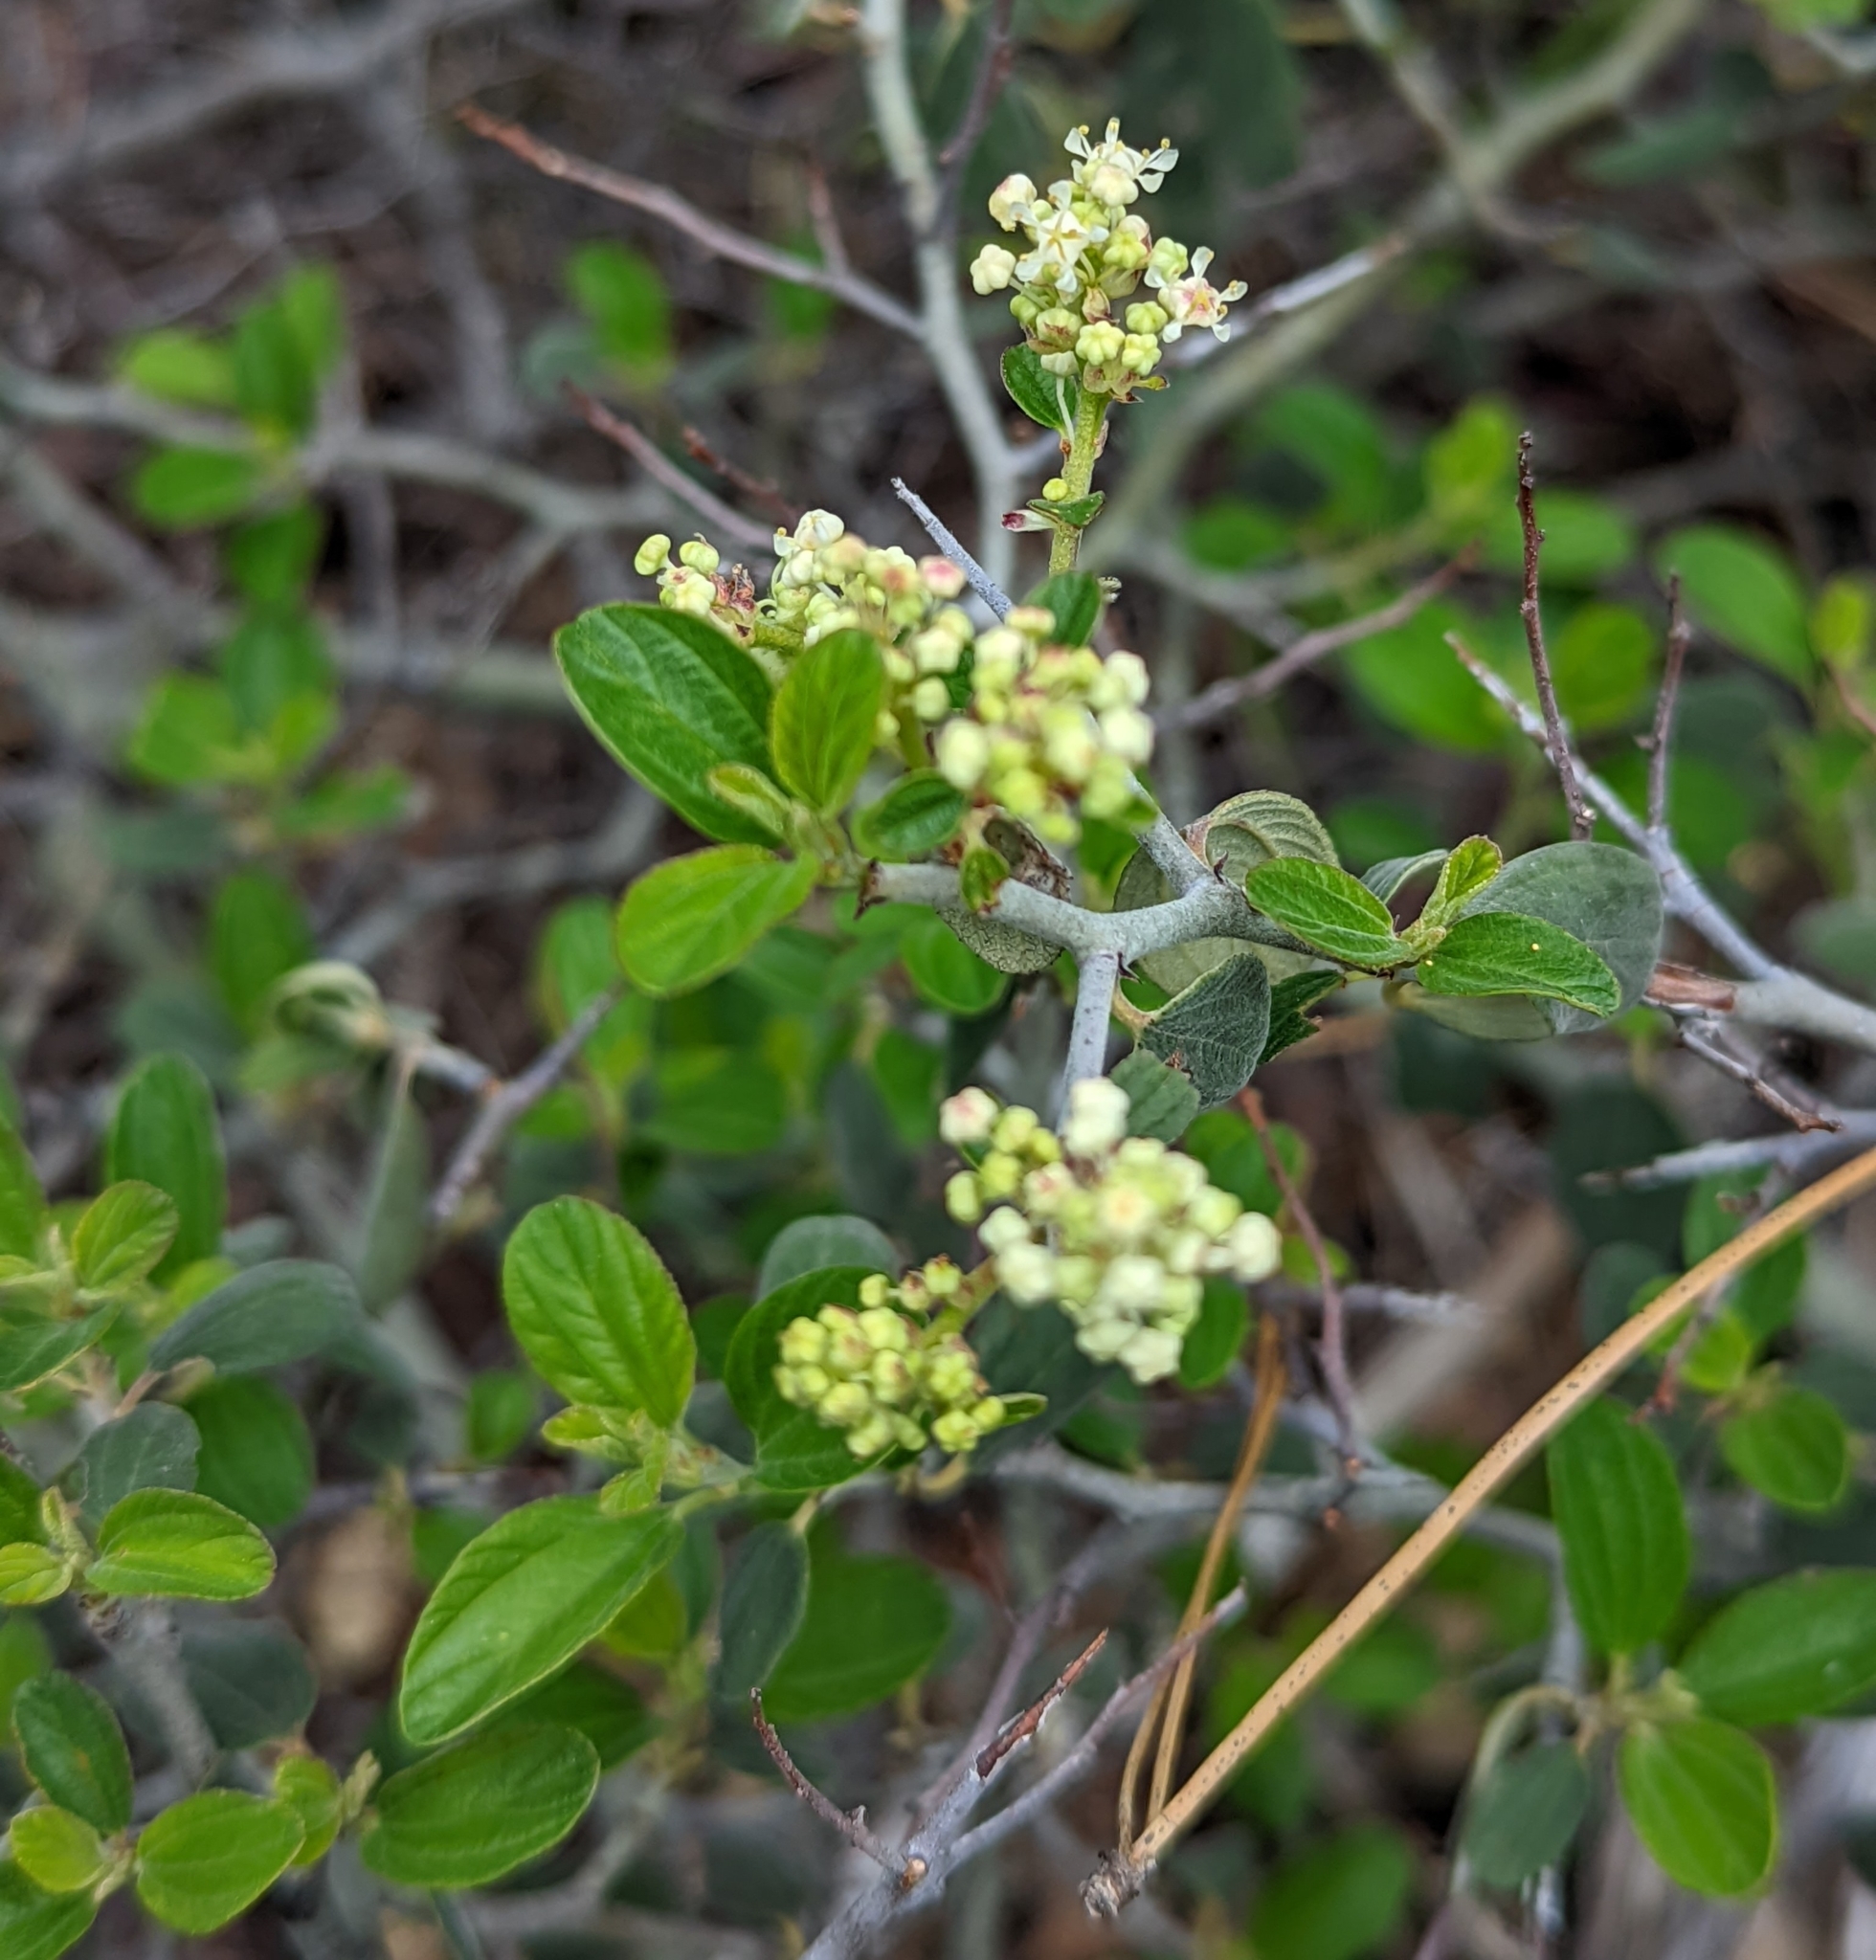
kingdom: Plantae
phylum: Tracheophyta
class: Magnoliopsida
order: Rosales
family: Rhamnaceae
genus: Ceanothus
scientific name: Ceanothus cordulatus
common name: Mountain whitethorn
